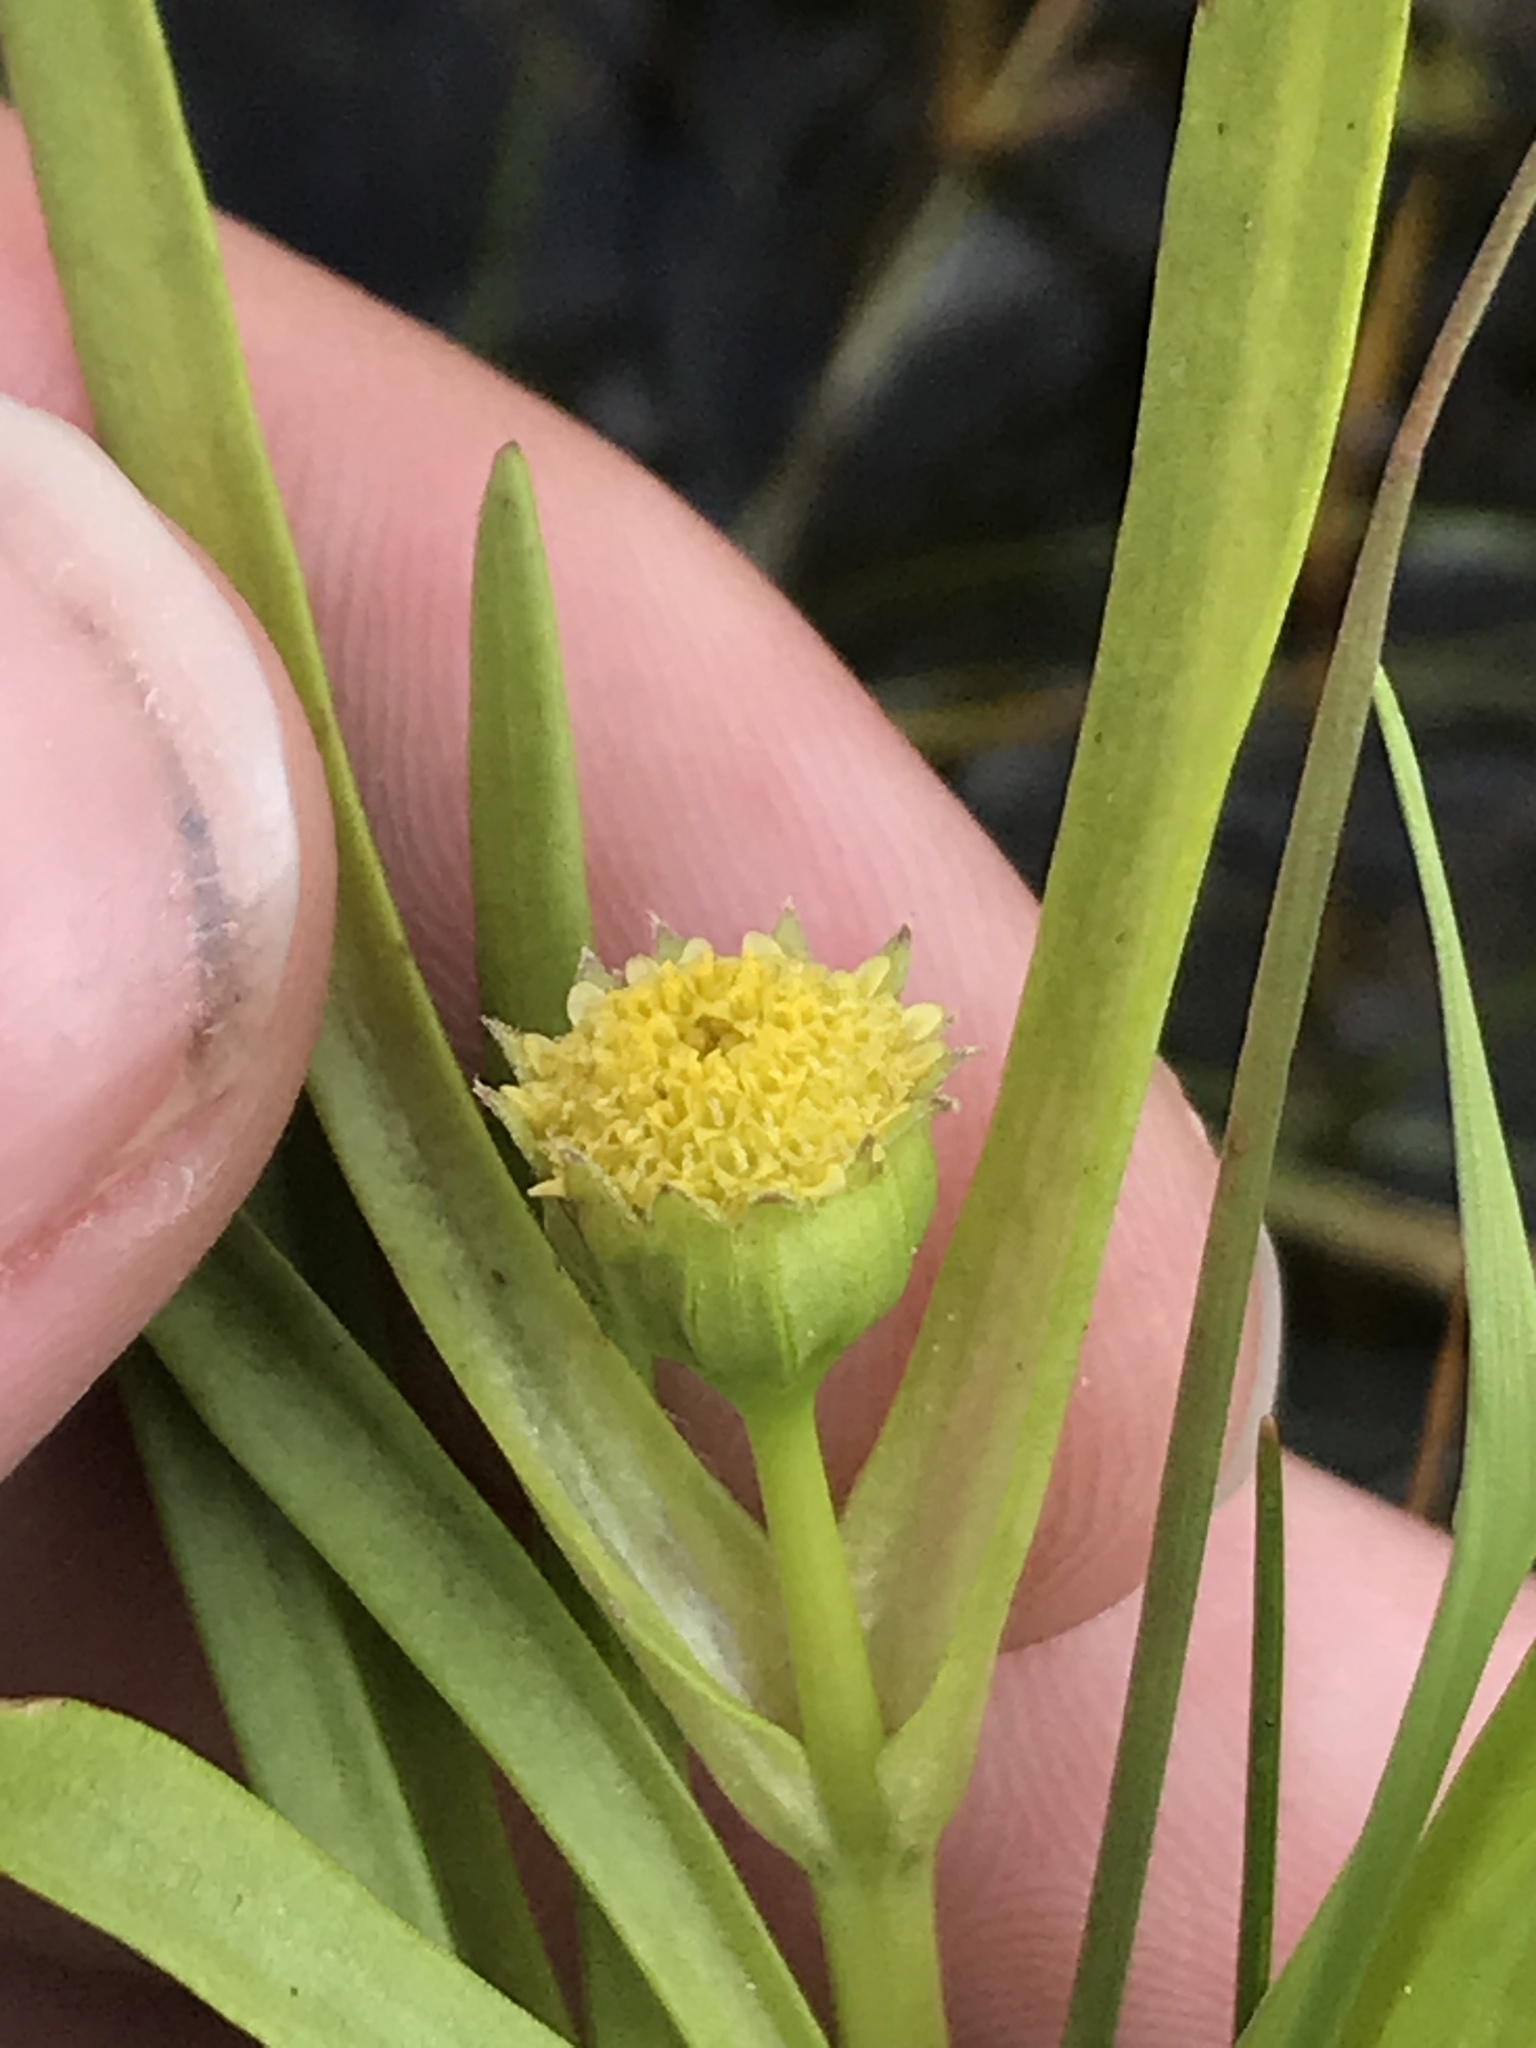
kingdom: Plantae
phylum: Tracheophyta
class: Magnoliopsida
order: Asterales
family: Asteraceae
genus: Lasthenia
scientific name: Lasthenia glaberrima
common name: Smooth goldfields
